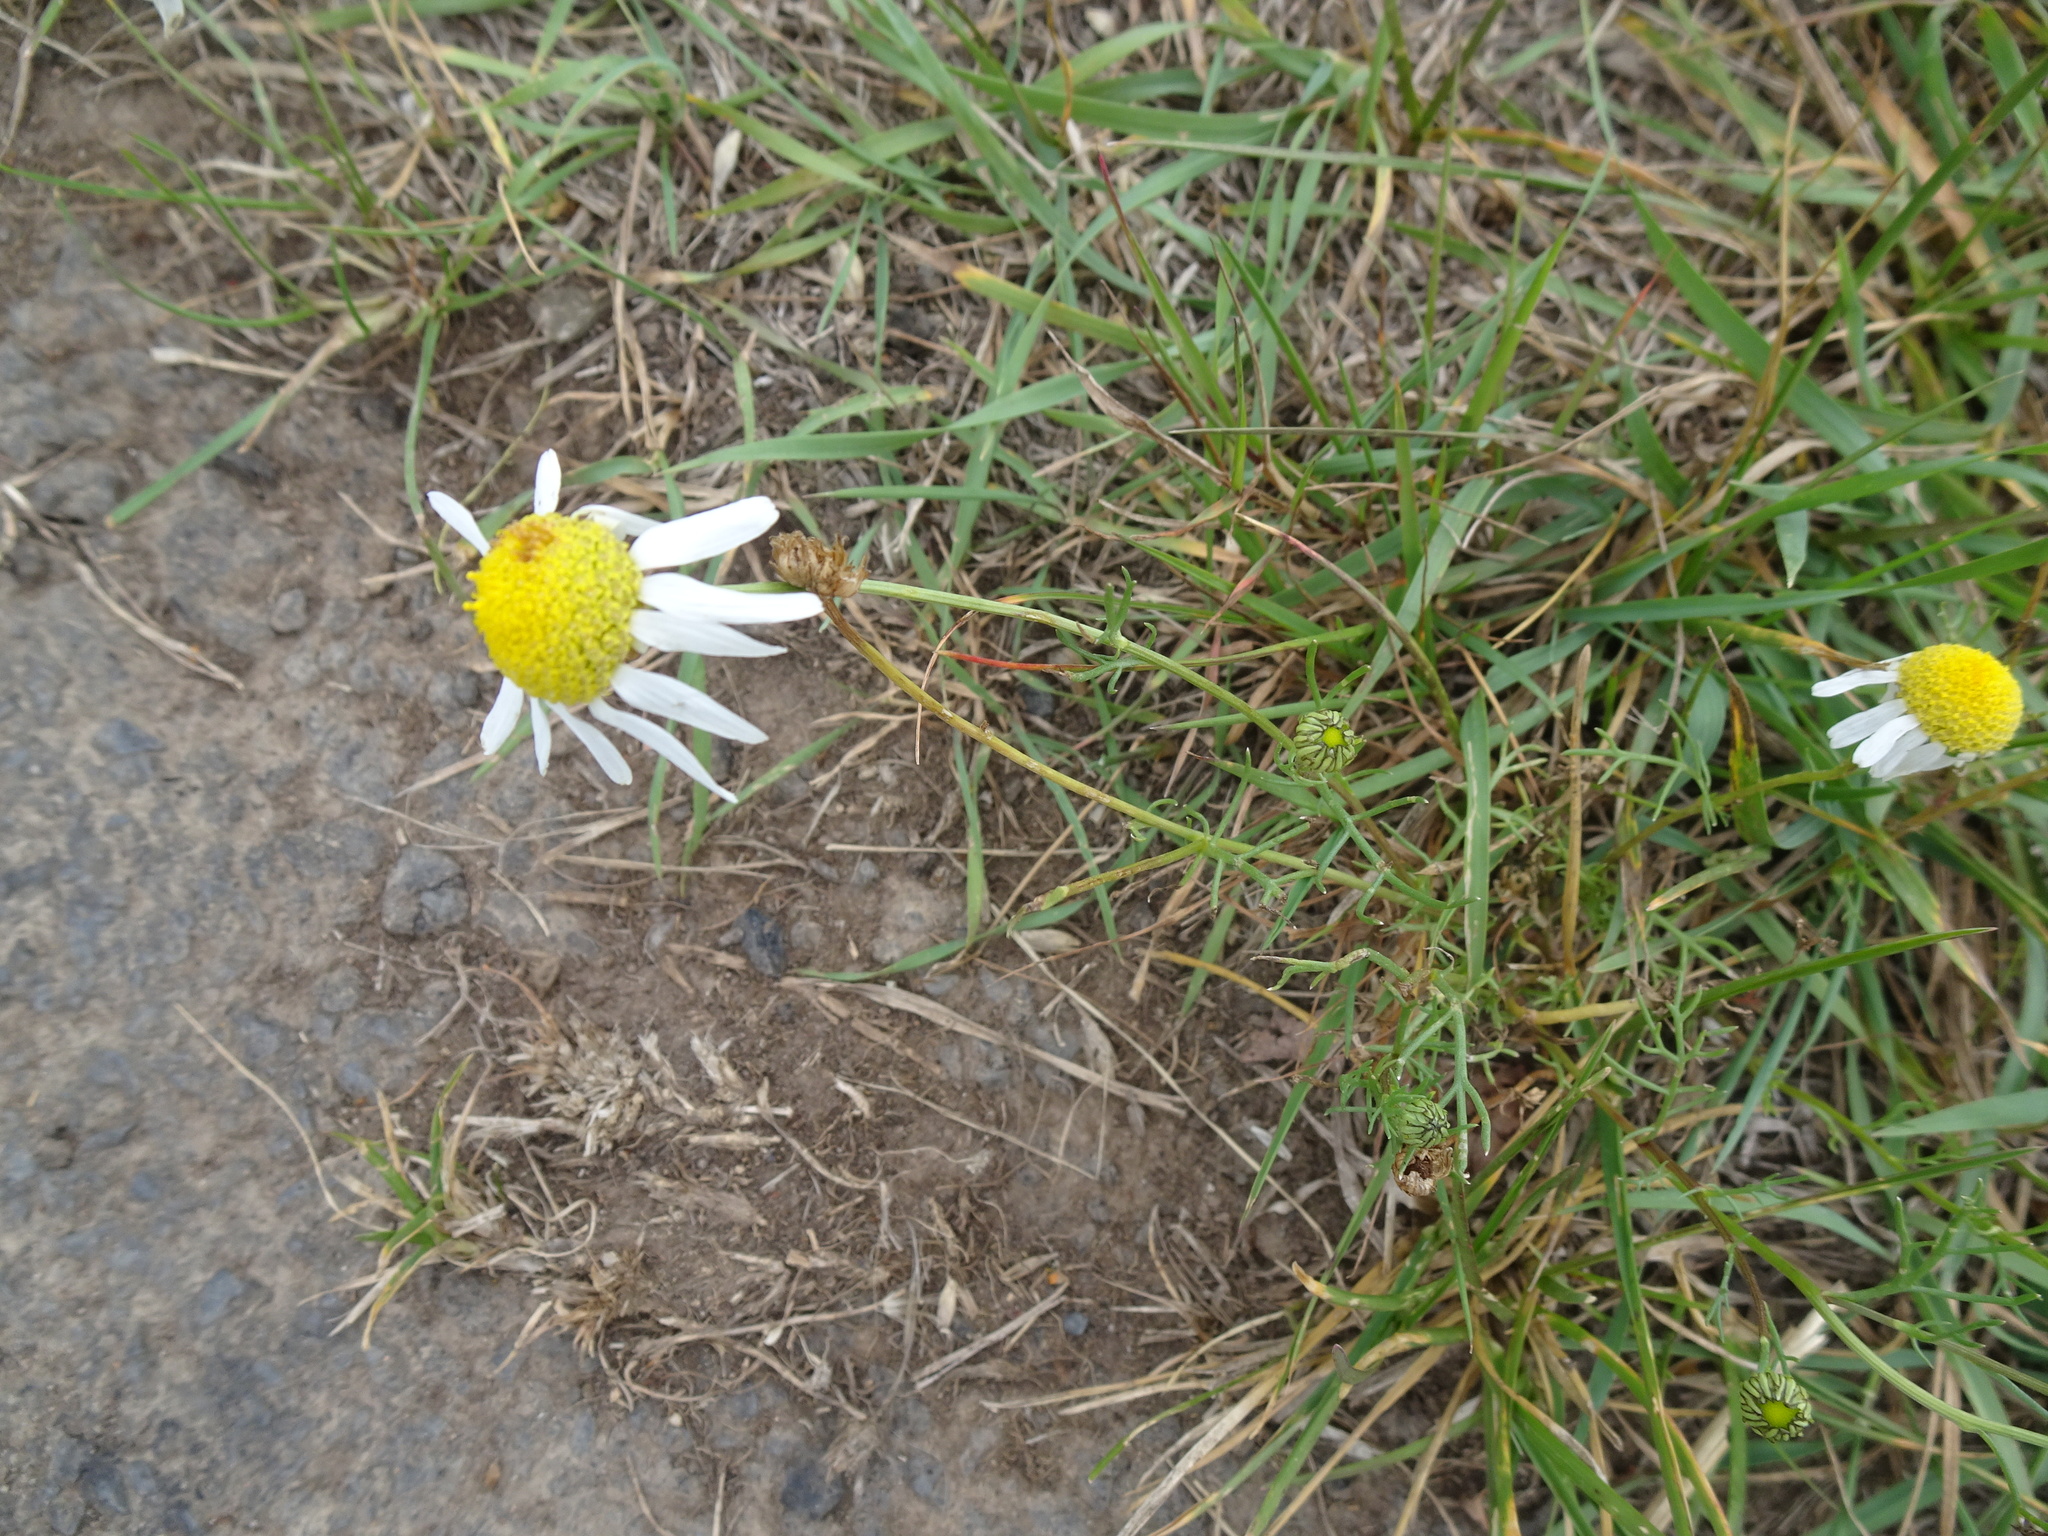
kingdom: Plantae
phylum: Tracheophyta
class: Magnoliopsida
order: Asterales
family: Asteraceae
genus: Tripleurospermum
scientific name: Tripleurospermum inodorum
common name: Scentless mayweed
